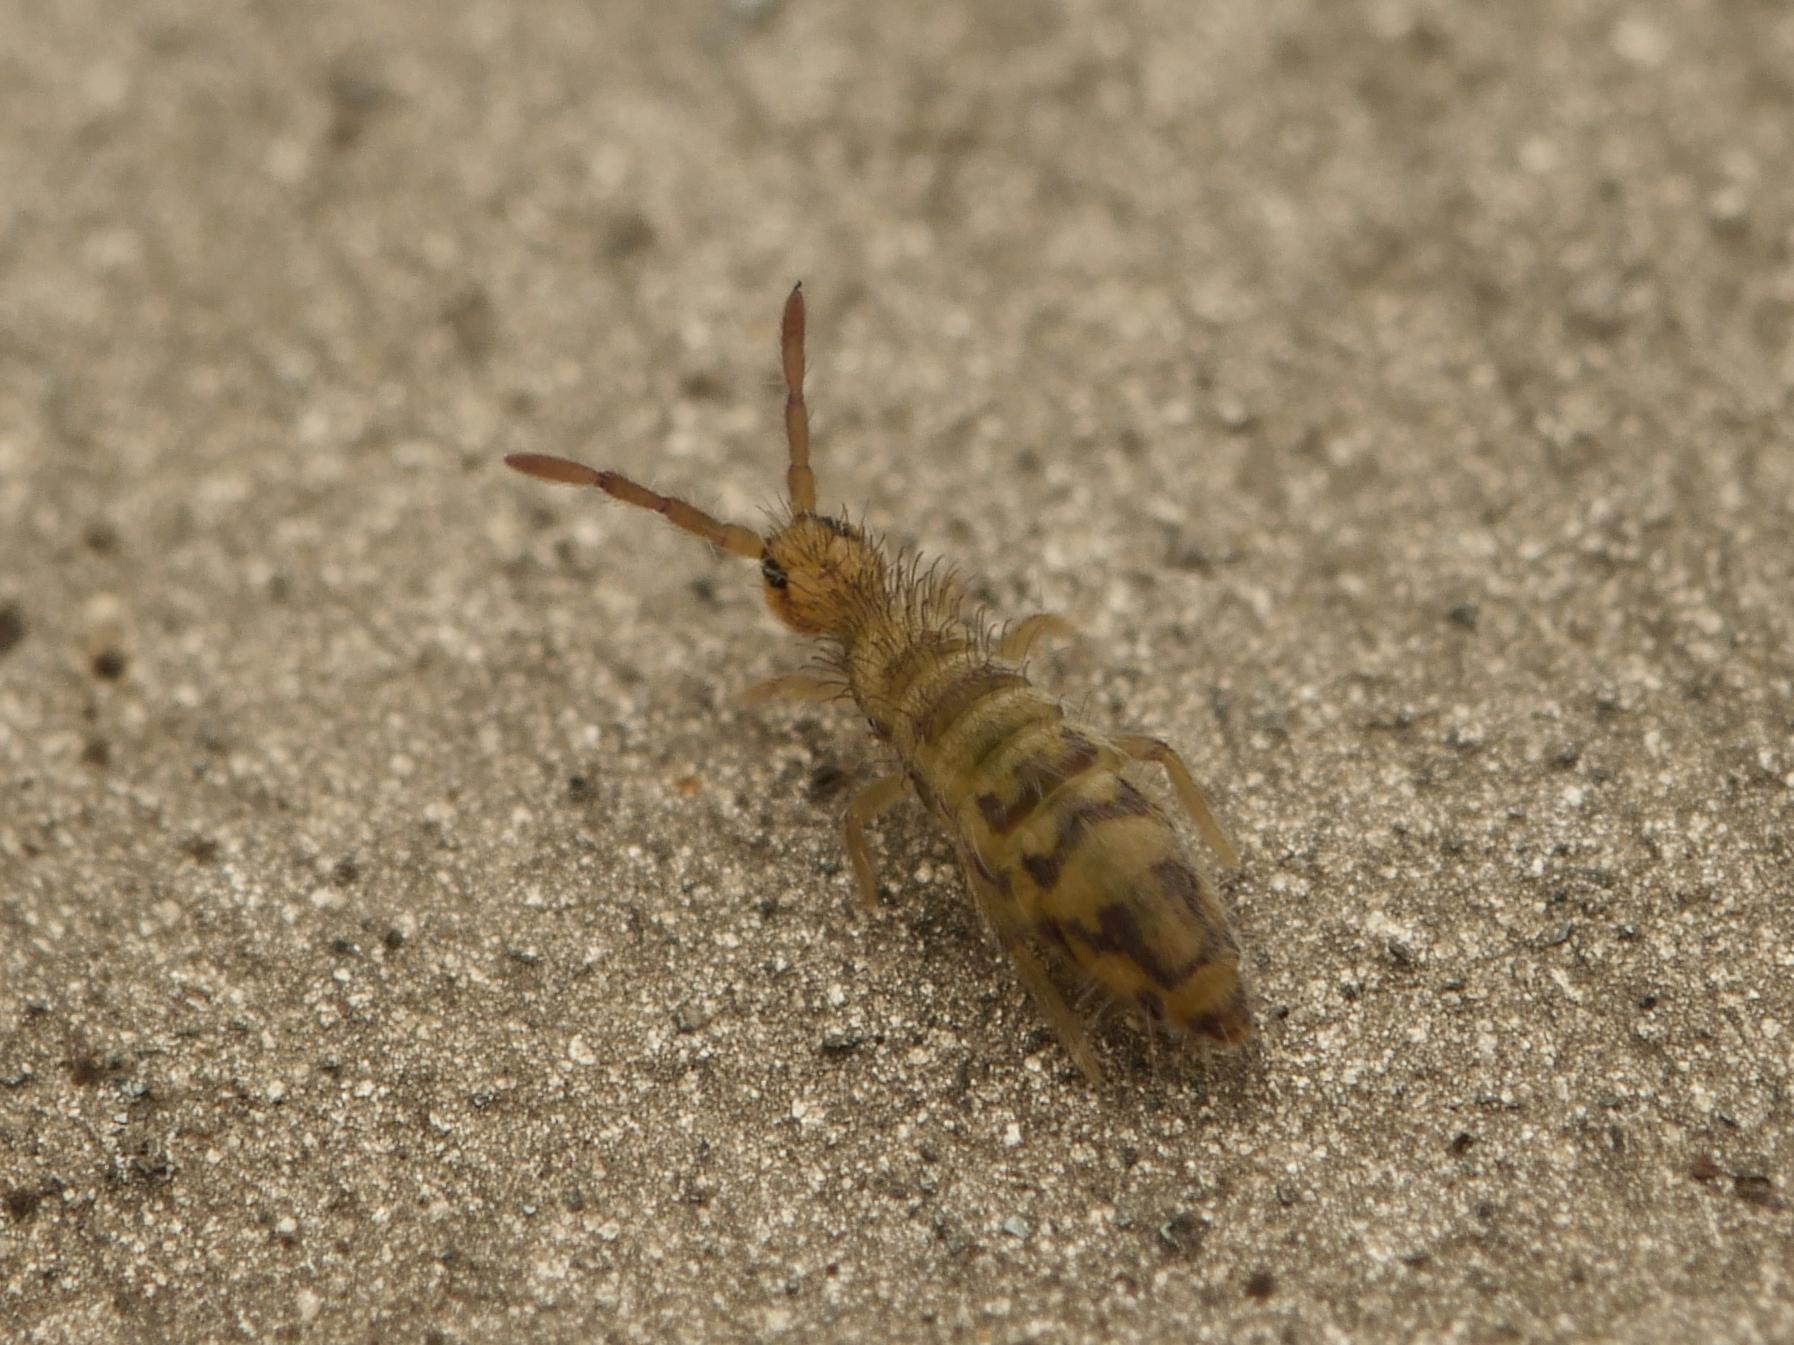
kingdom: Animalia
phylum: Arthropoda
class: Collembola
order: Entomobryomorpha
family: Entomobryidae
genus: Entomobrya
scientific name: Entomobrya nivalis
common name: Cosmopolitan springtail
